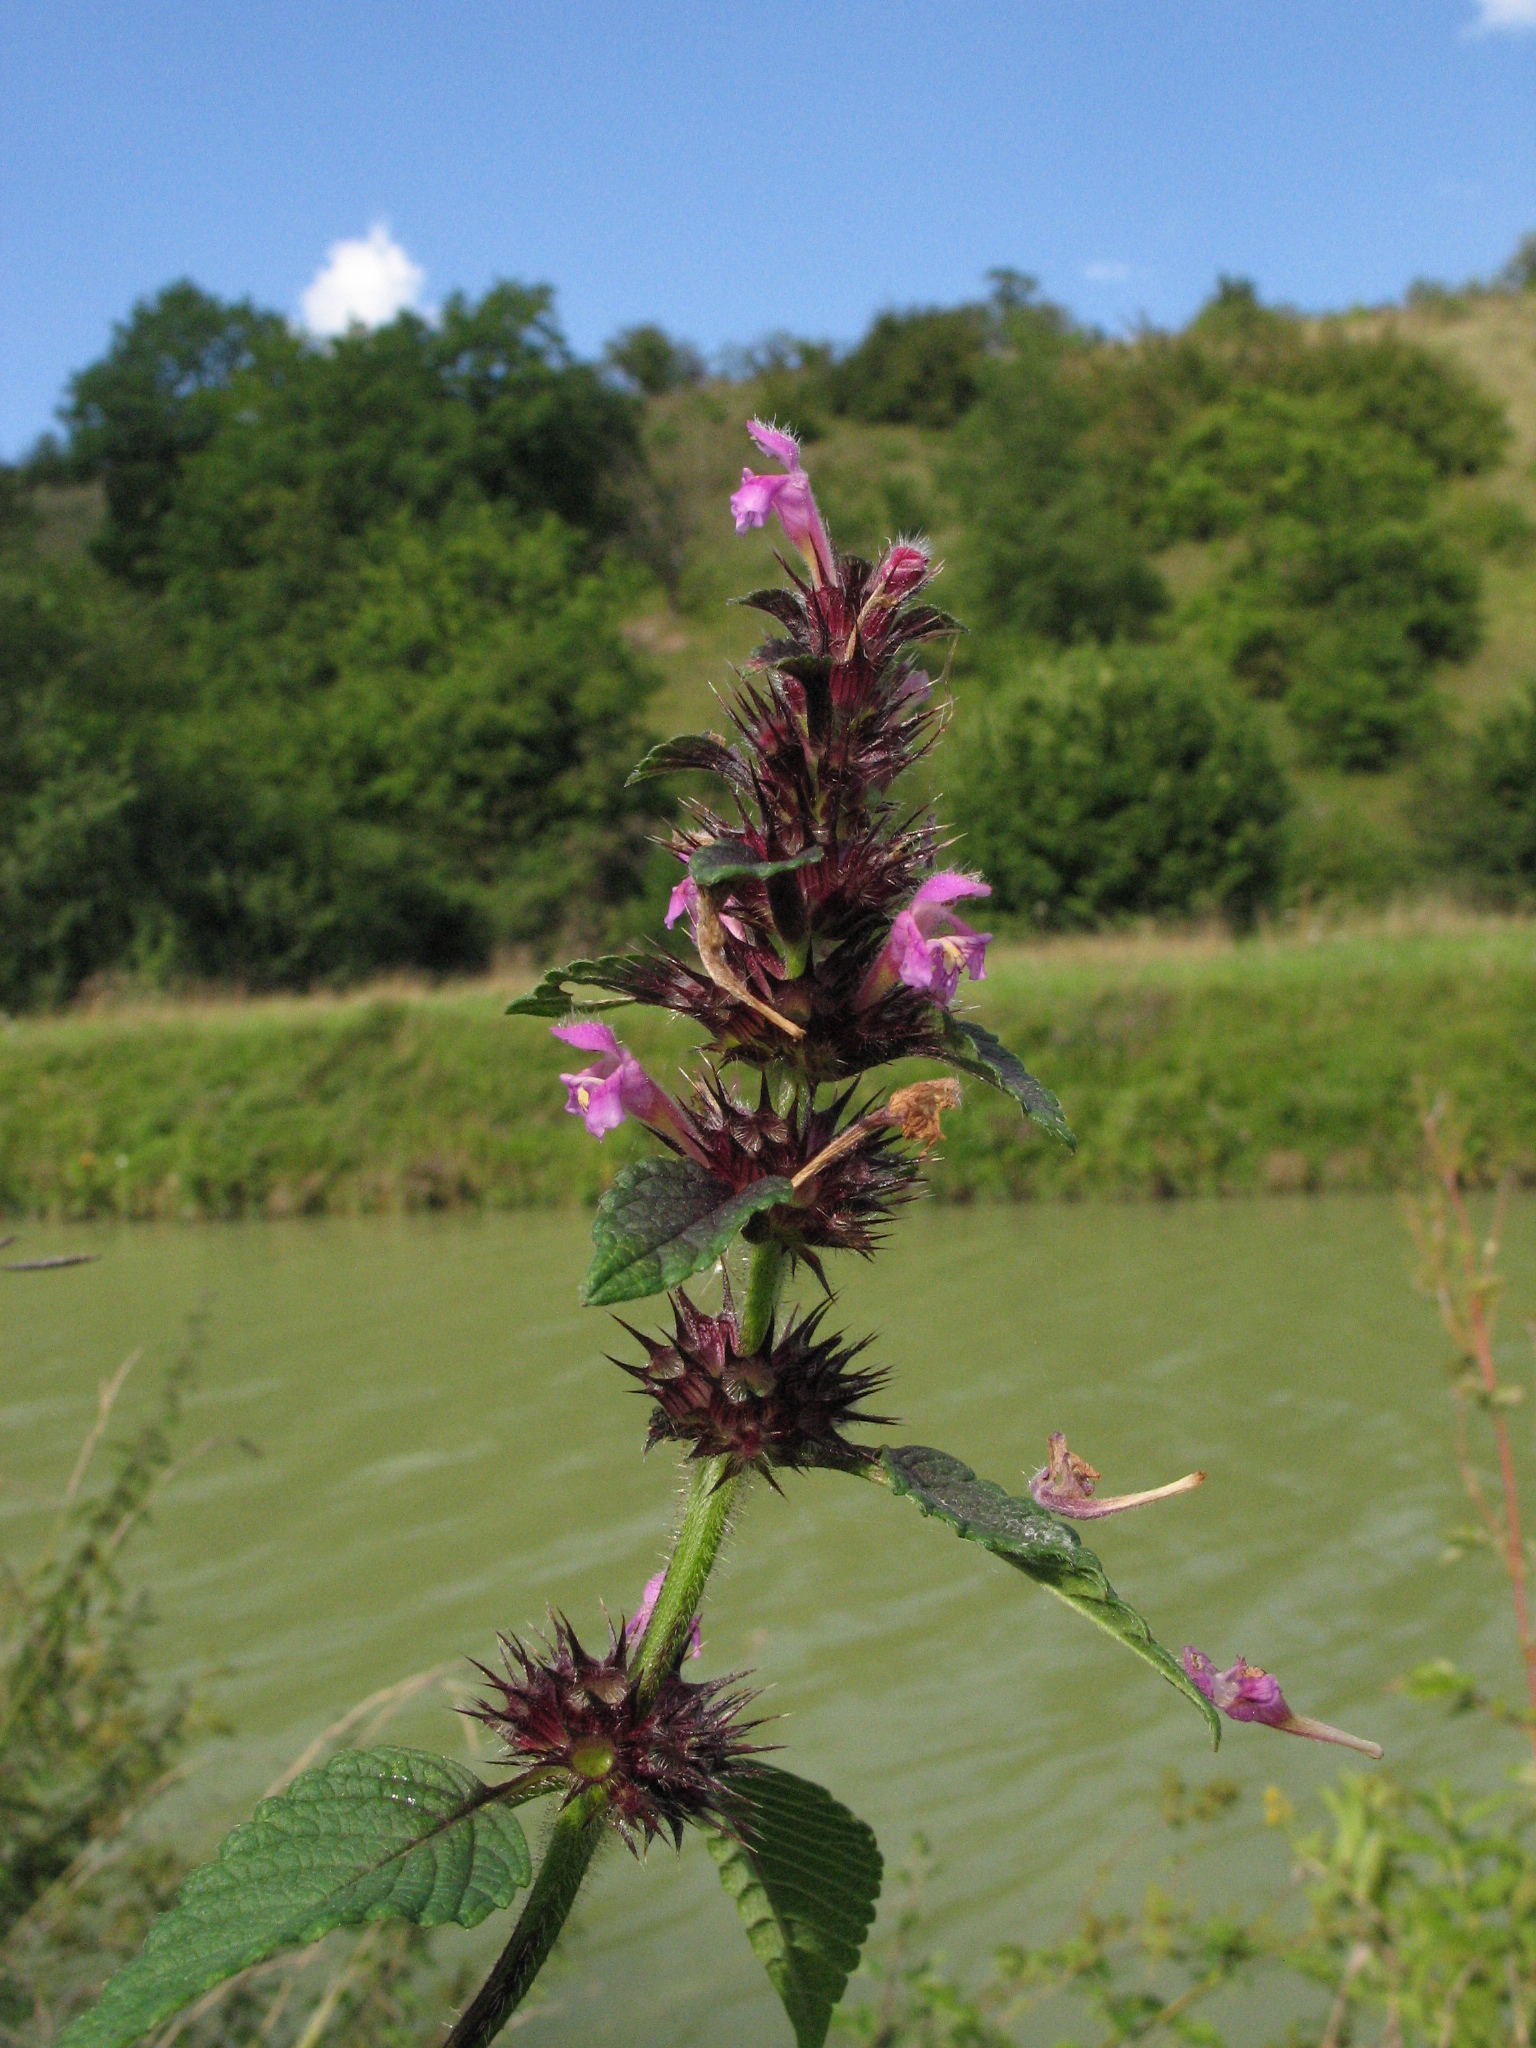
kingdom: Plantae
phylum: Tracheophyta
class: Magnoliopsida
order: Lamiales
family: Lamiaceae
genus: Galeopsis
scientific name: Galeopsis tetrahit
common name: Common hemp-nettle
